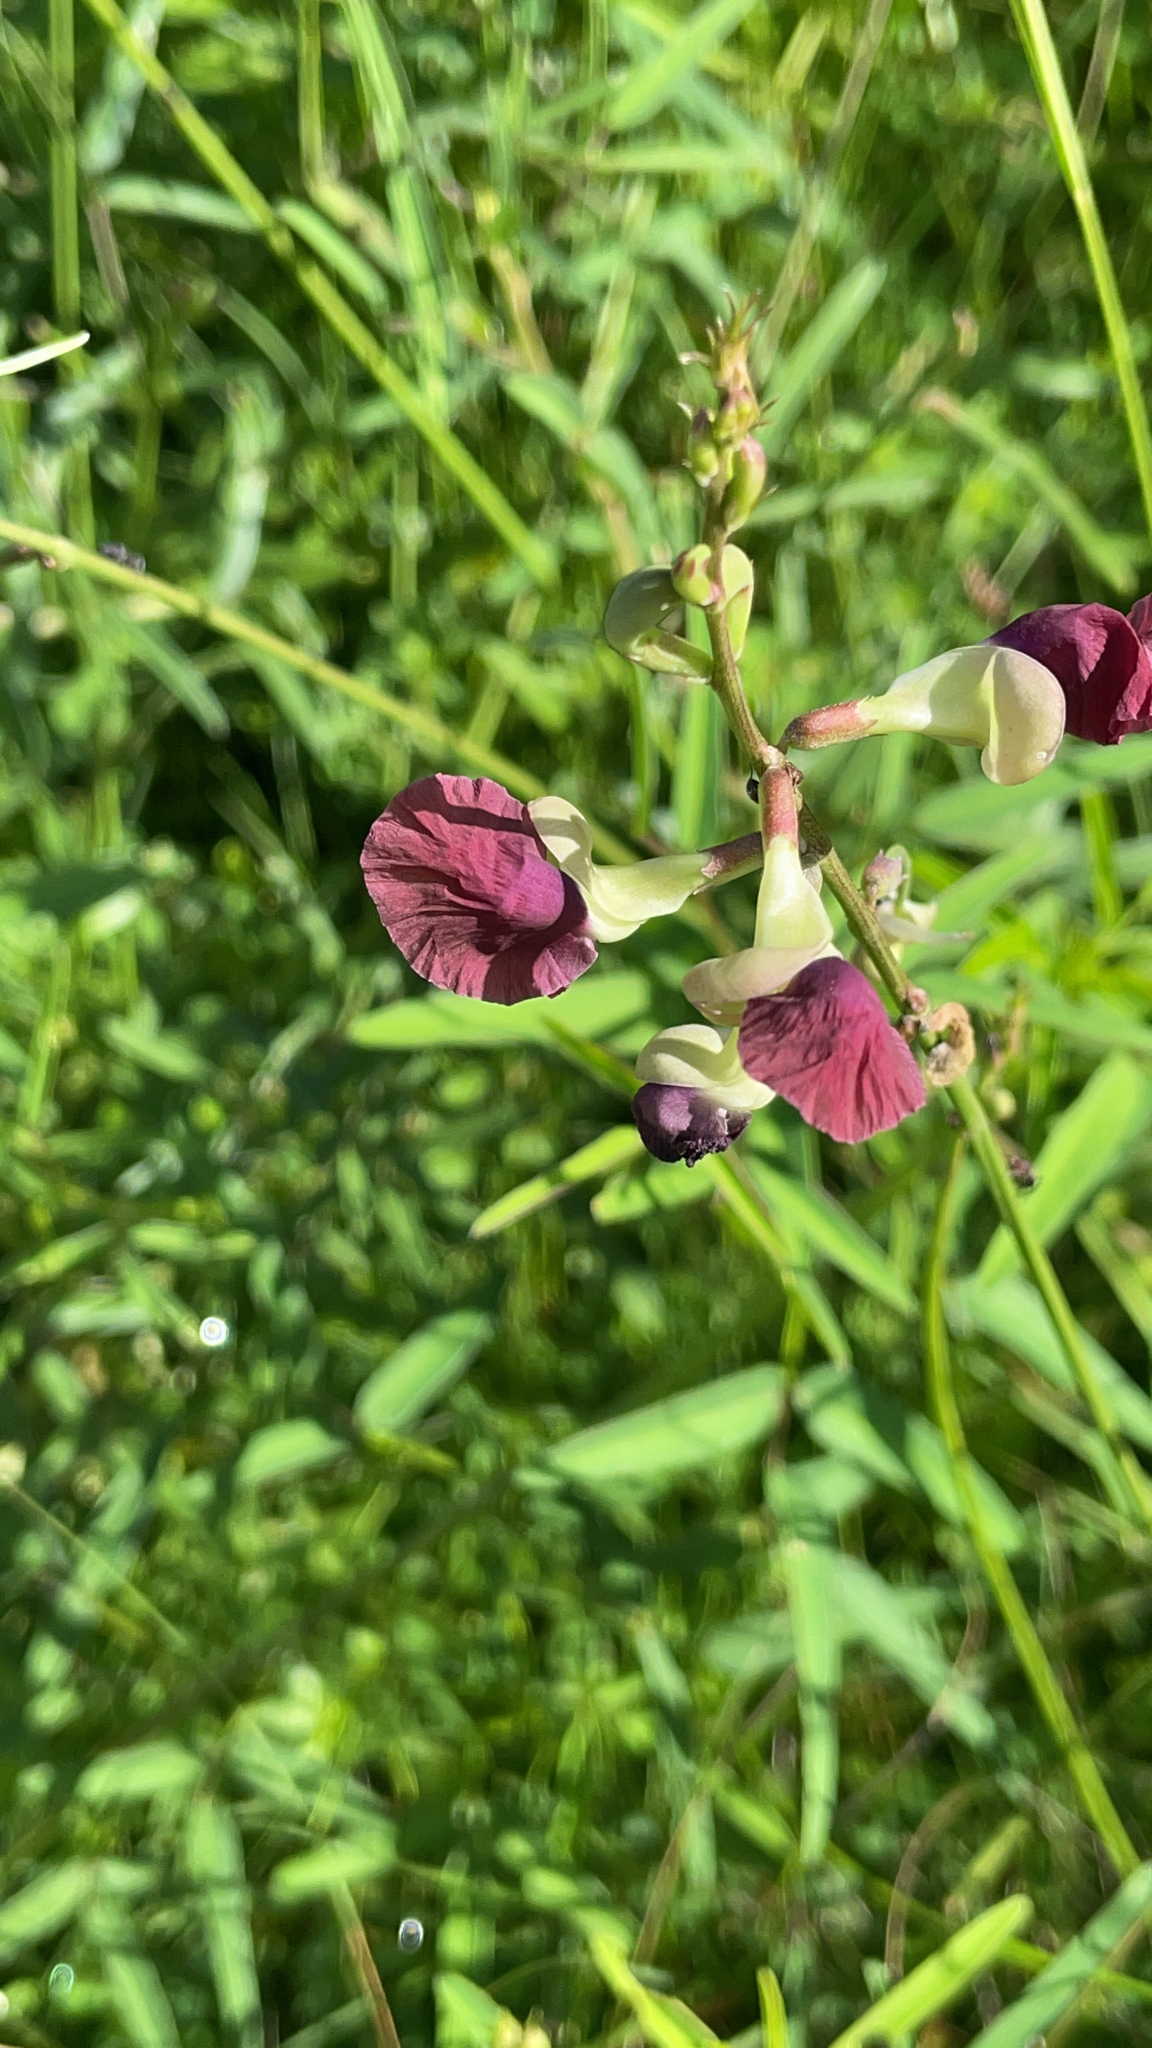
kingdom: Plantae
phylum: Tracheophyta
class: Magnoliopsida
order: Fabales
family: Fabaceae
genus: Macroptilium
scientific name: Macroptilium lathyroides
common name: Wild bushbean
